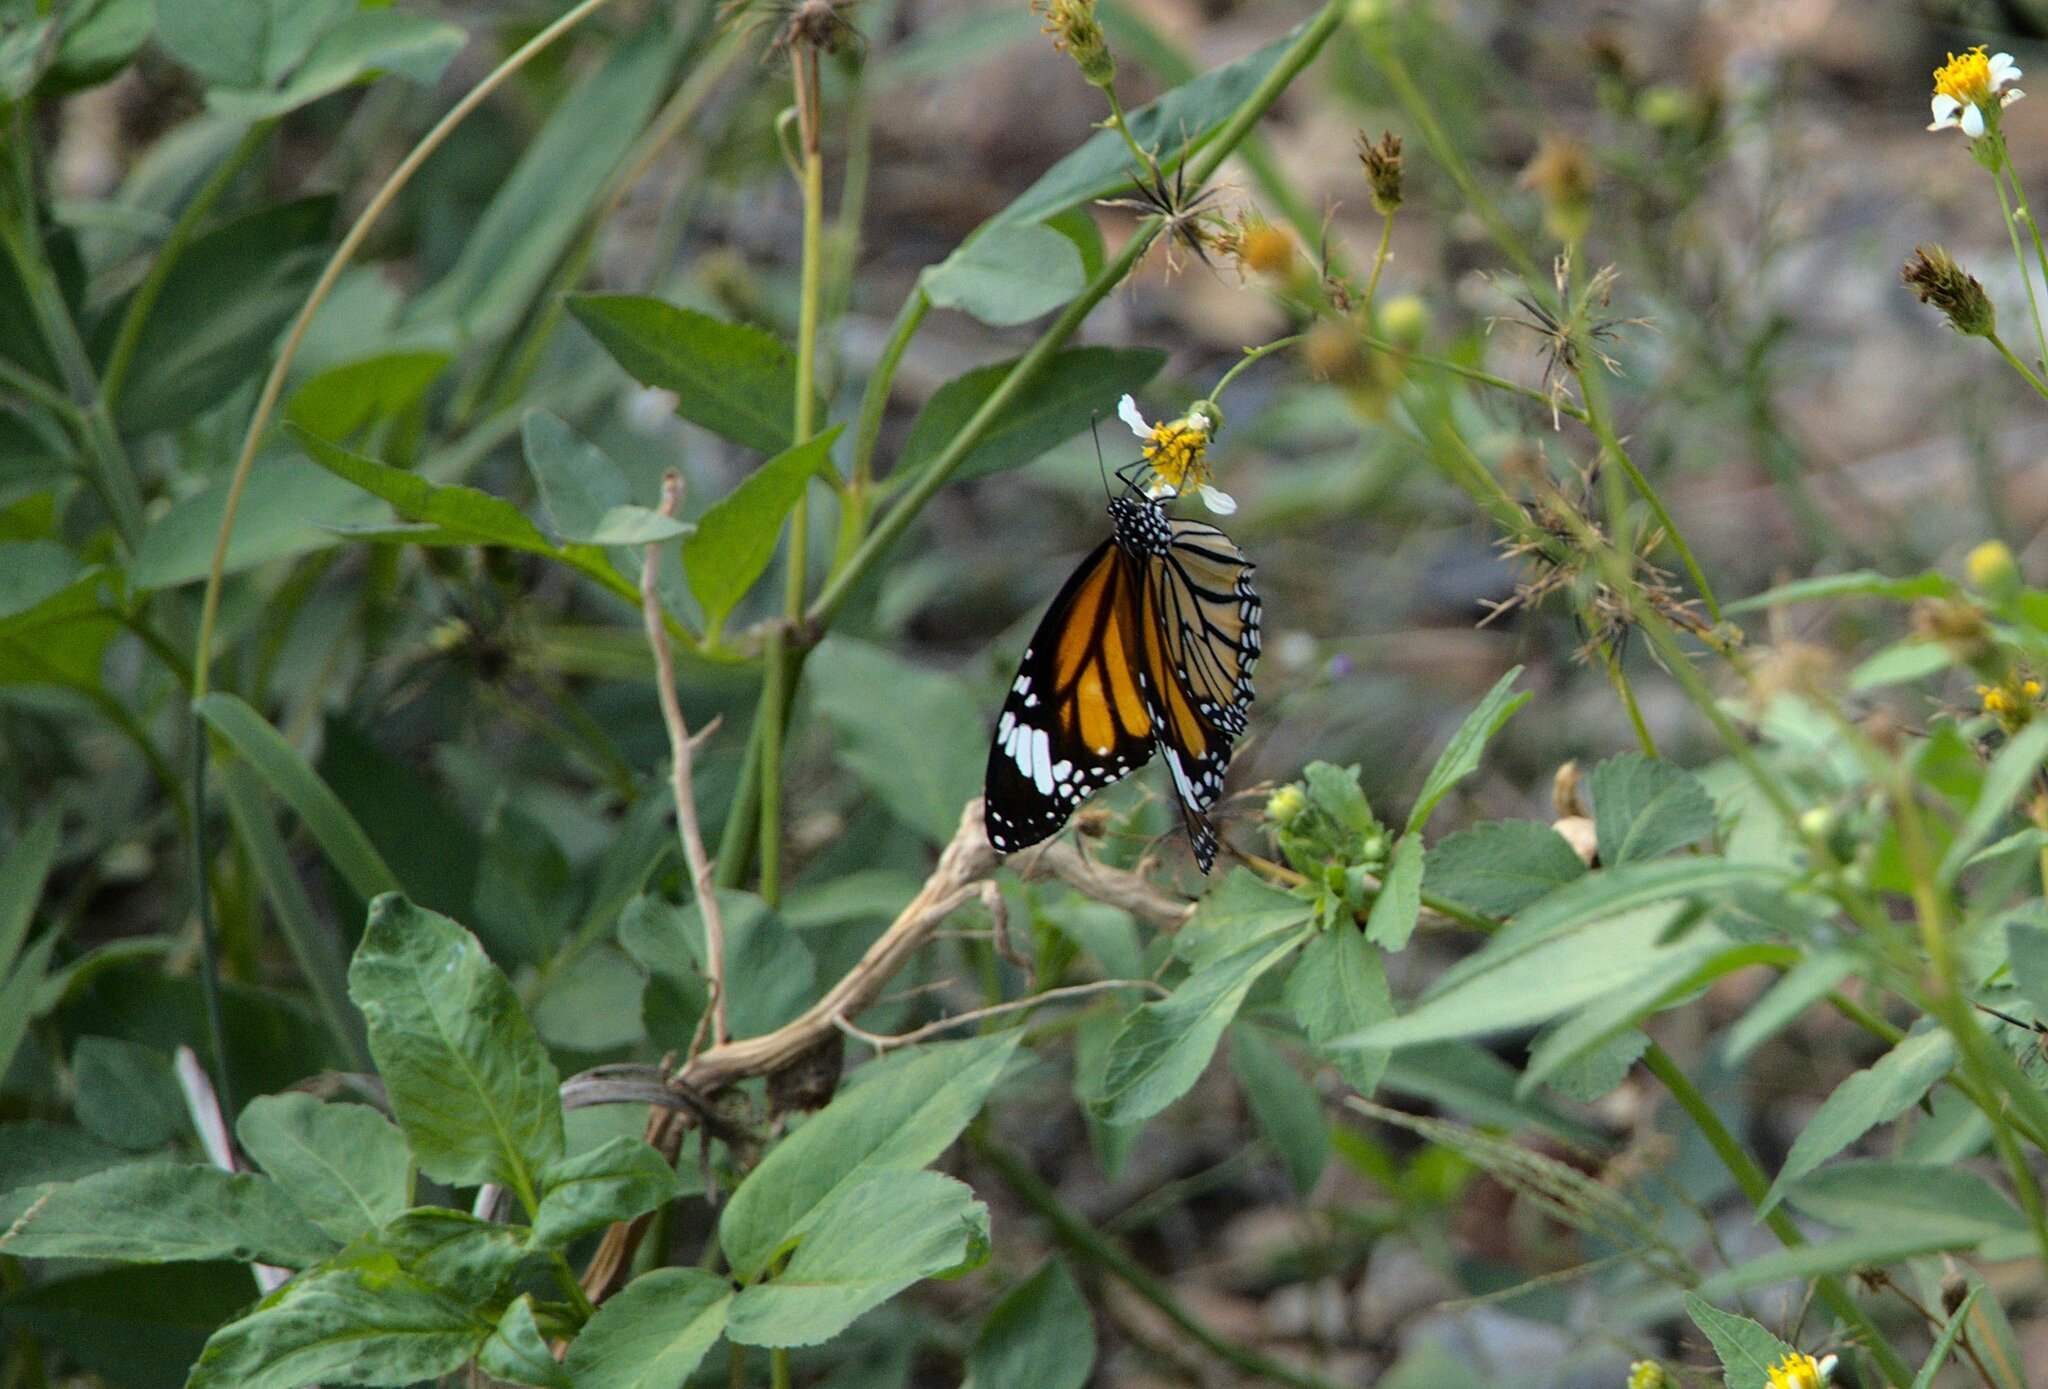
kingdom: Animalia
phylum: Arthropoda
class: Insecta
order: Lepidoptera
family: Nymphalidae
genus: Danaus
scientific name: Danaus genutia
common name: Common tiger butterfly
